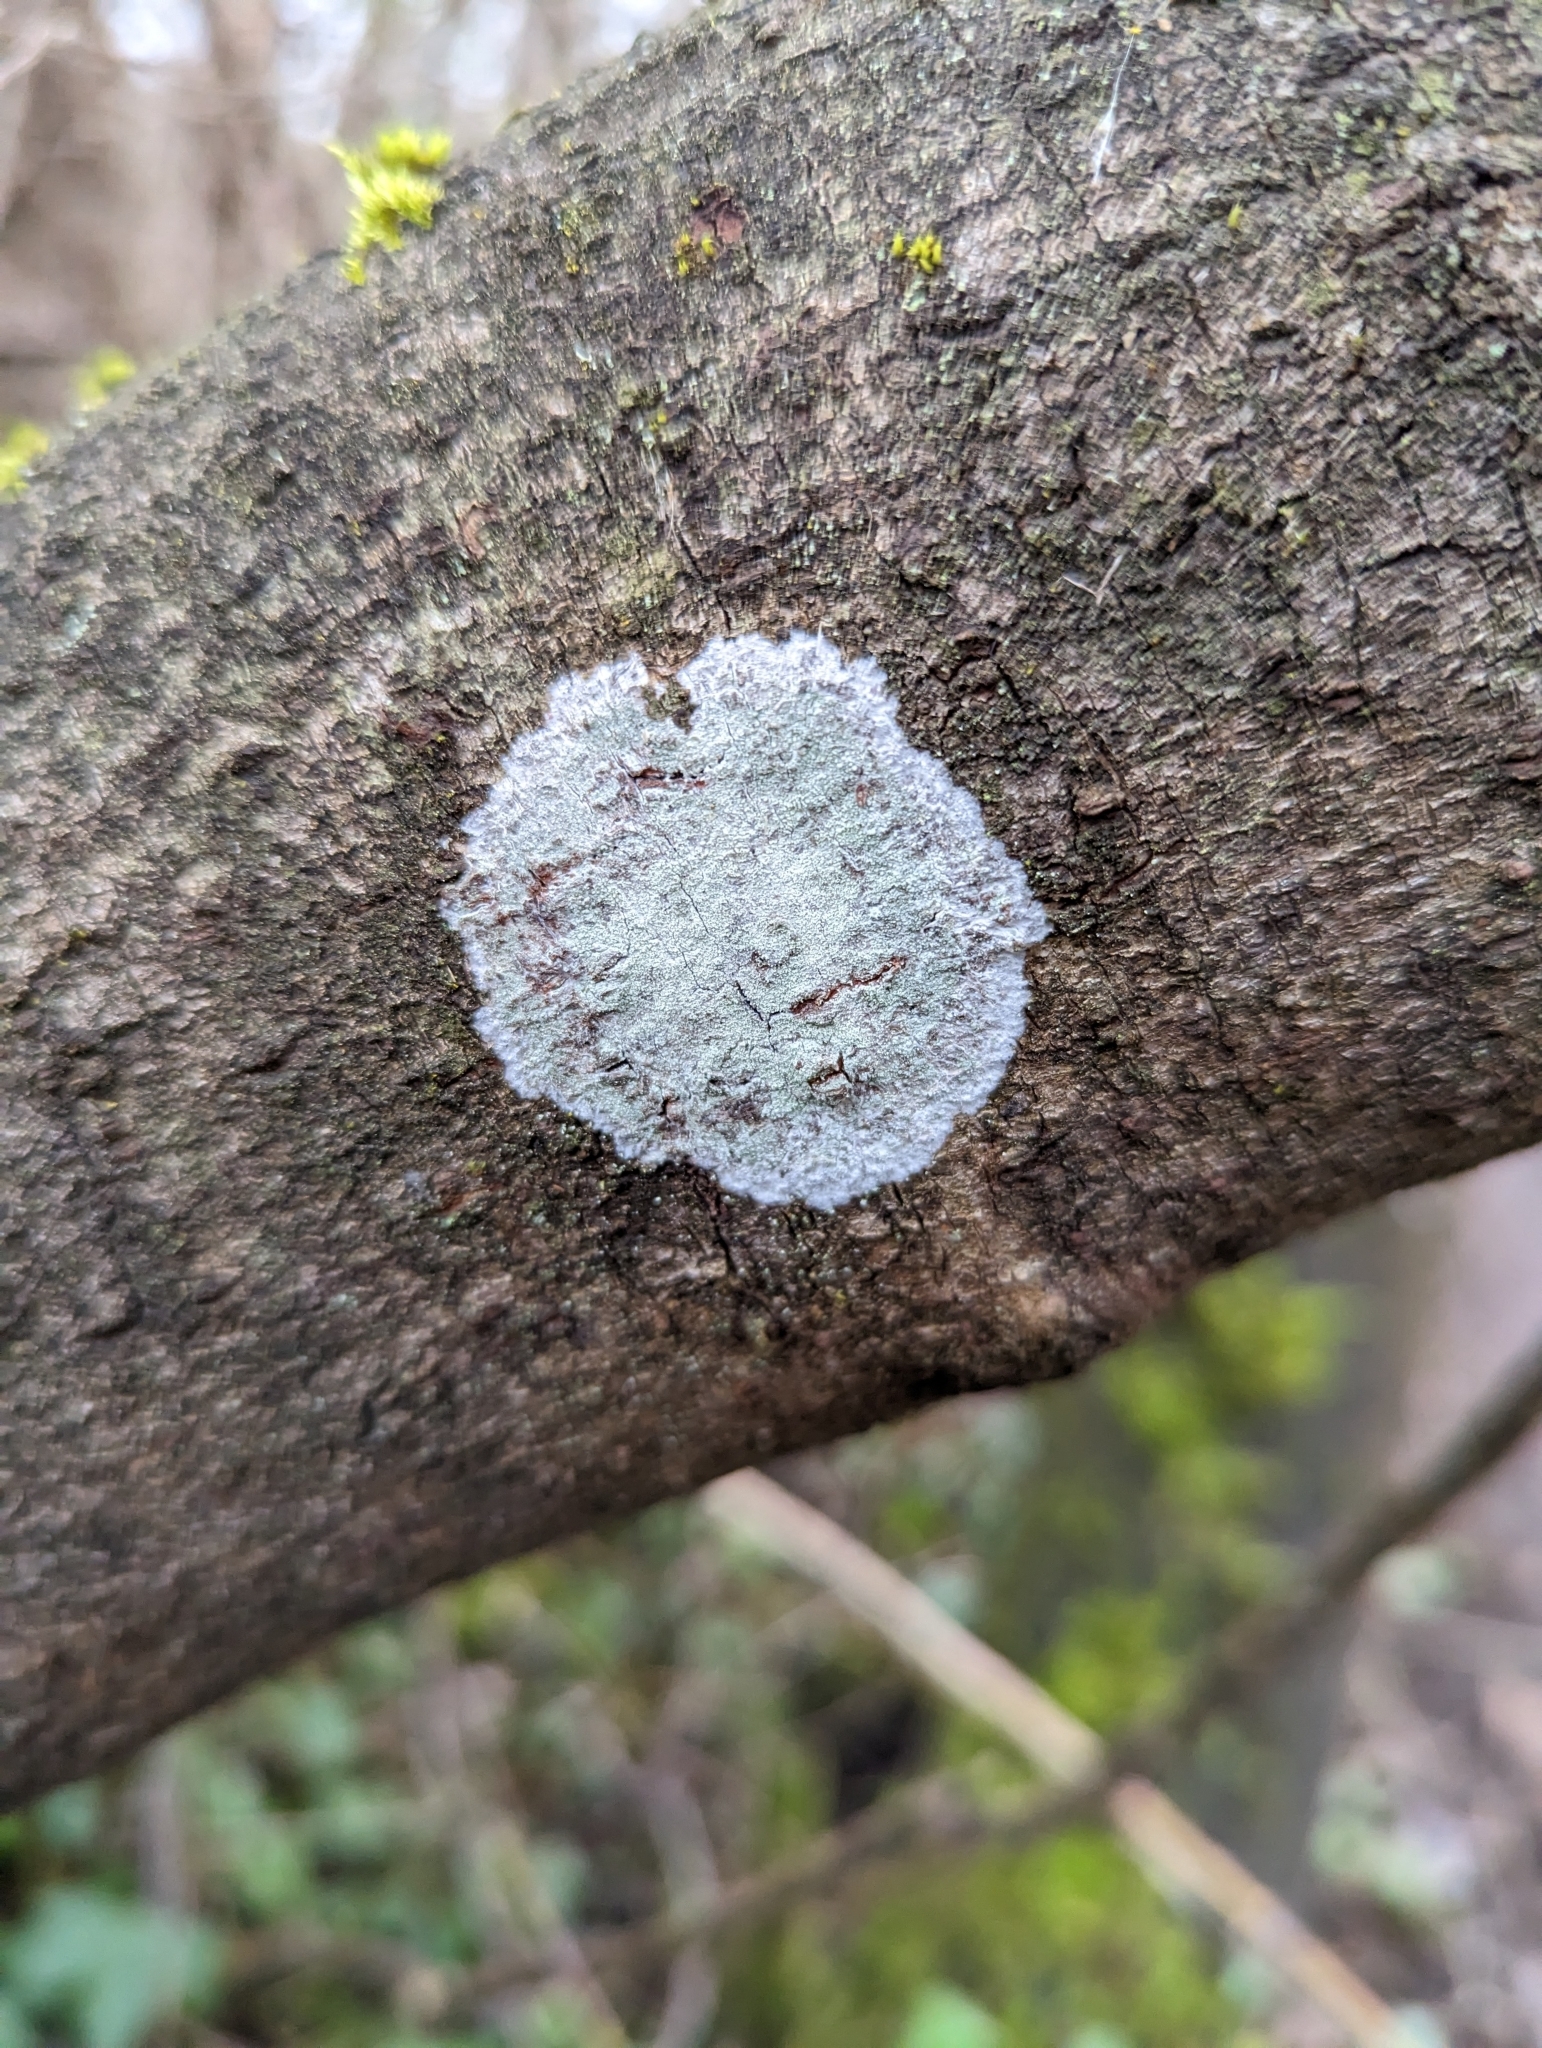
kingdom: Fungi
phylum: Ascomycota
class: Lecanoromycetes
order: Ostropales
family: Phlyctidaceae
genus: Phlyctis
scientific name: Phlyctis argena
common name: Whitewash lichen
